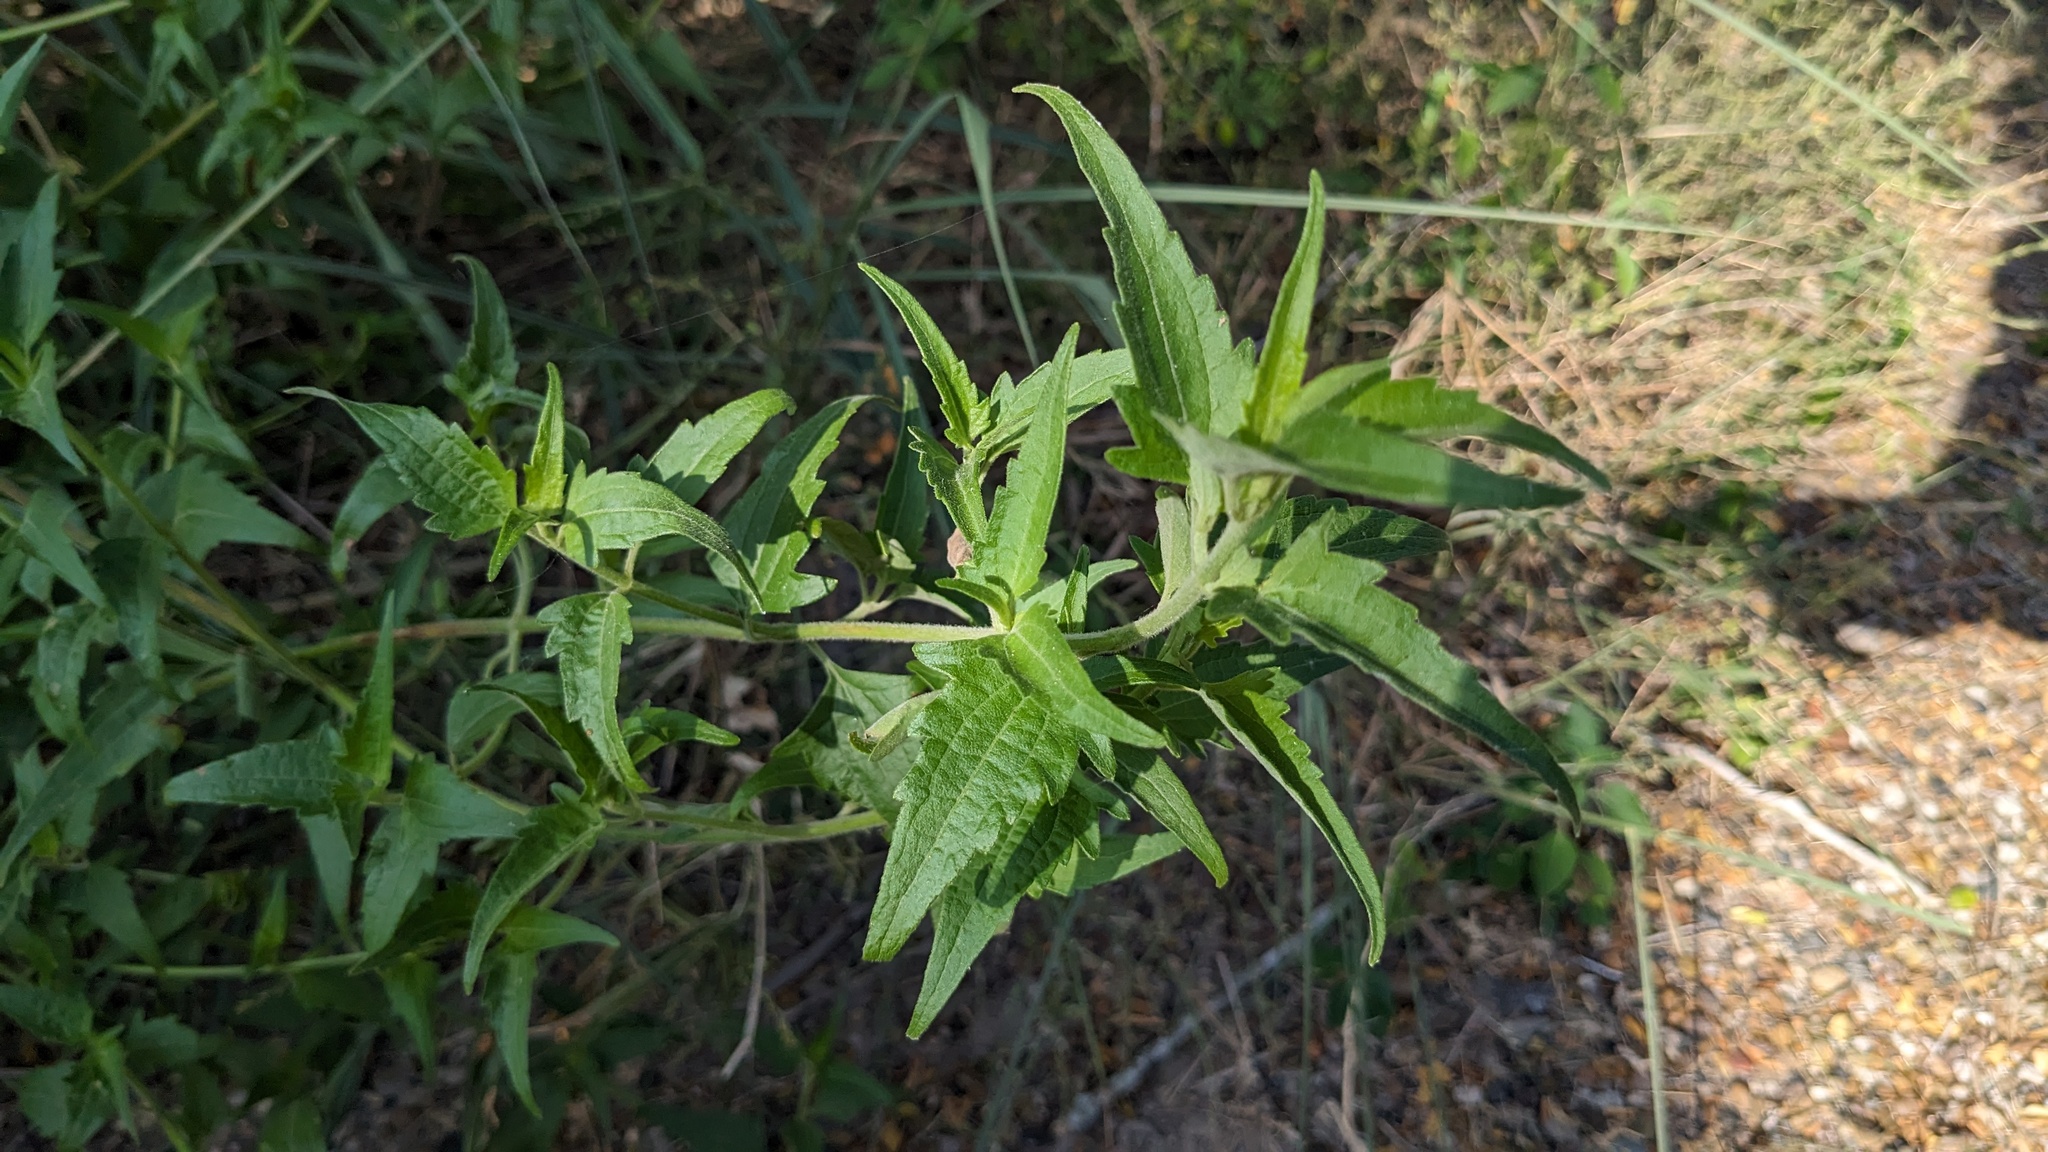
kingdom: Plantae
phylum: Tracheophyta
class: Magnoliopsida
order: Asterales
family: Asteraceae
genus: Chromolaena
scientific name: Chromolaena odorata
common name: Siamweed
